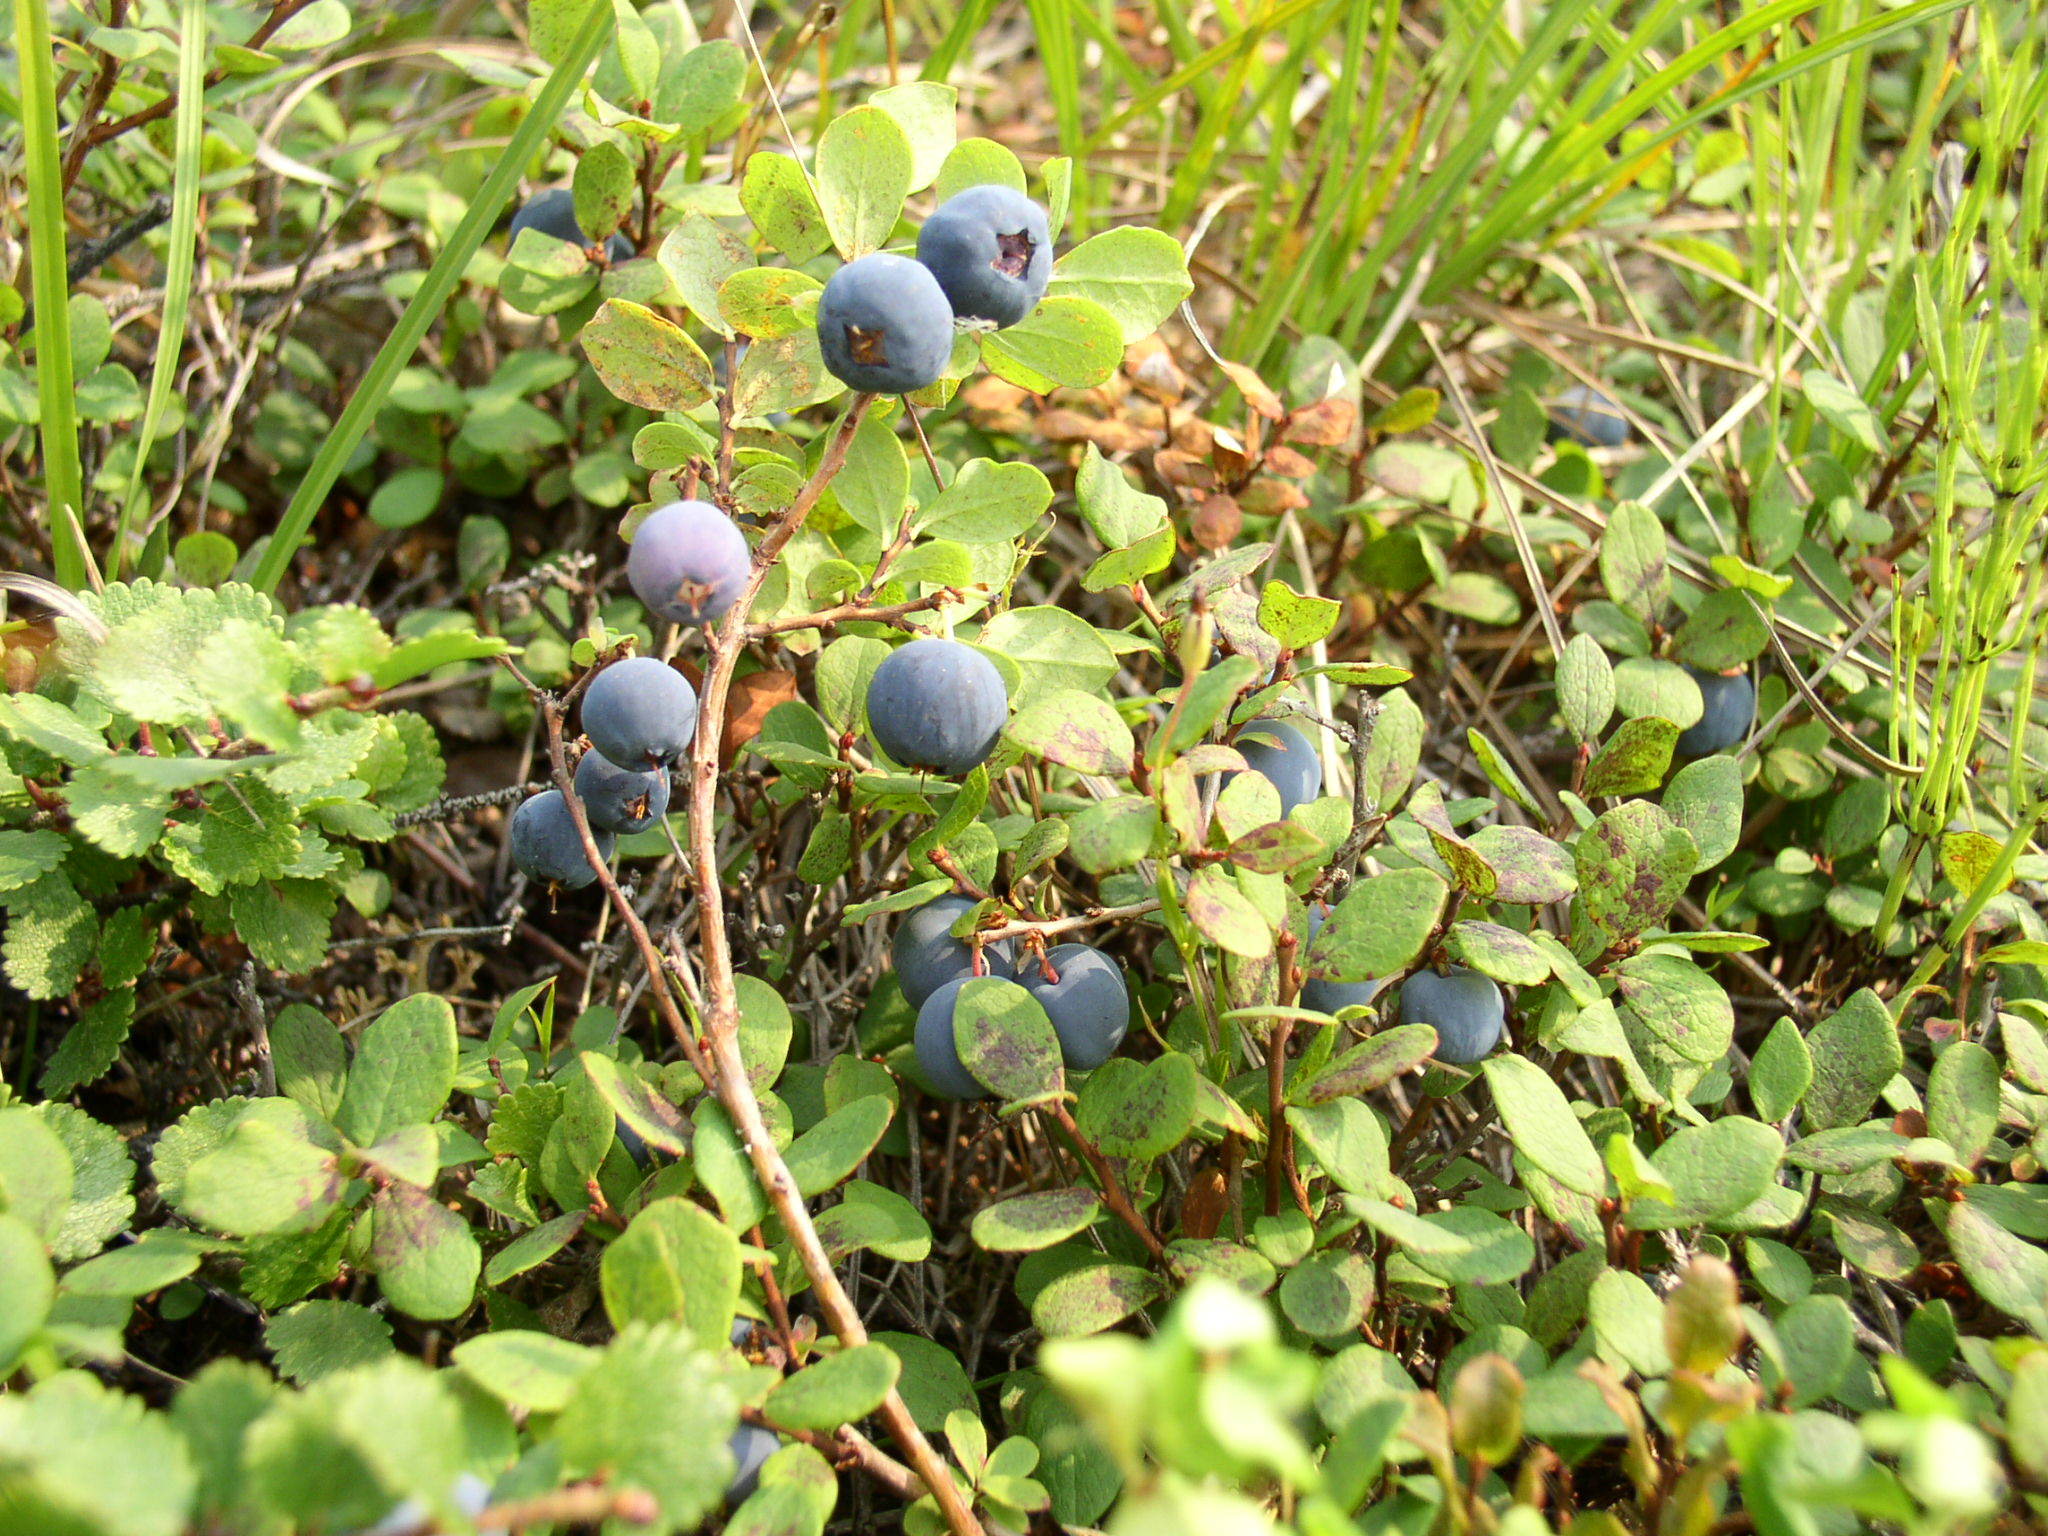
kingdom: Plantae
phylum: Tracheophyta
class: Magnoliopsida
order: Ericales
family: Ericaceae
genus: Vaccinium
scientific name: Vaccinium uliginosum
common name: Bog bilberry
